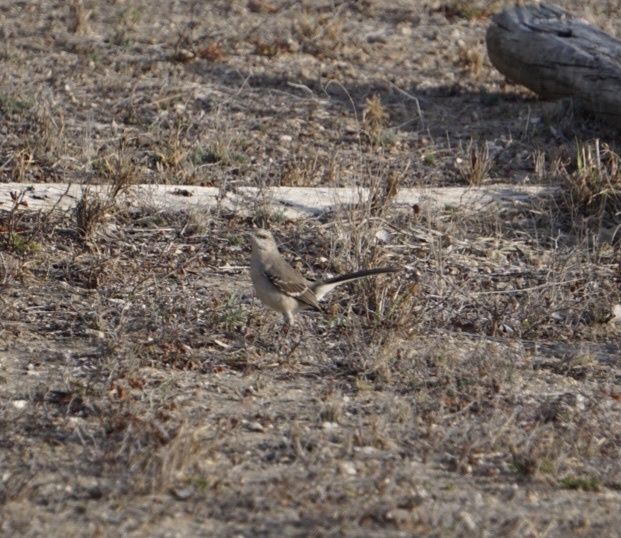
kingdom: Animalia
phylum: Chordata
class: Aves
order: Passeriformes
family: Mimidae
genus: Mimus
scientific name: Mimus polyglottos
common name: Northern mockingbird
